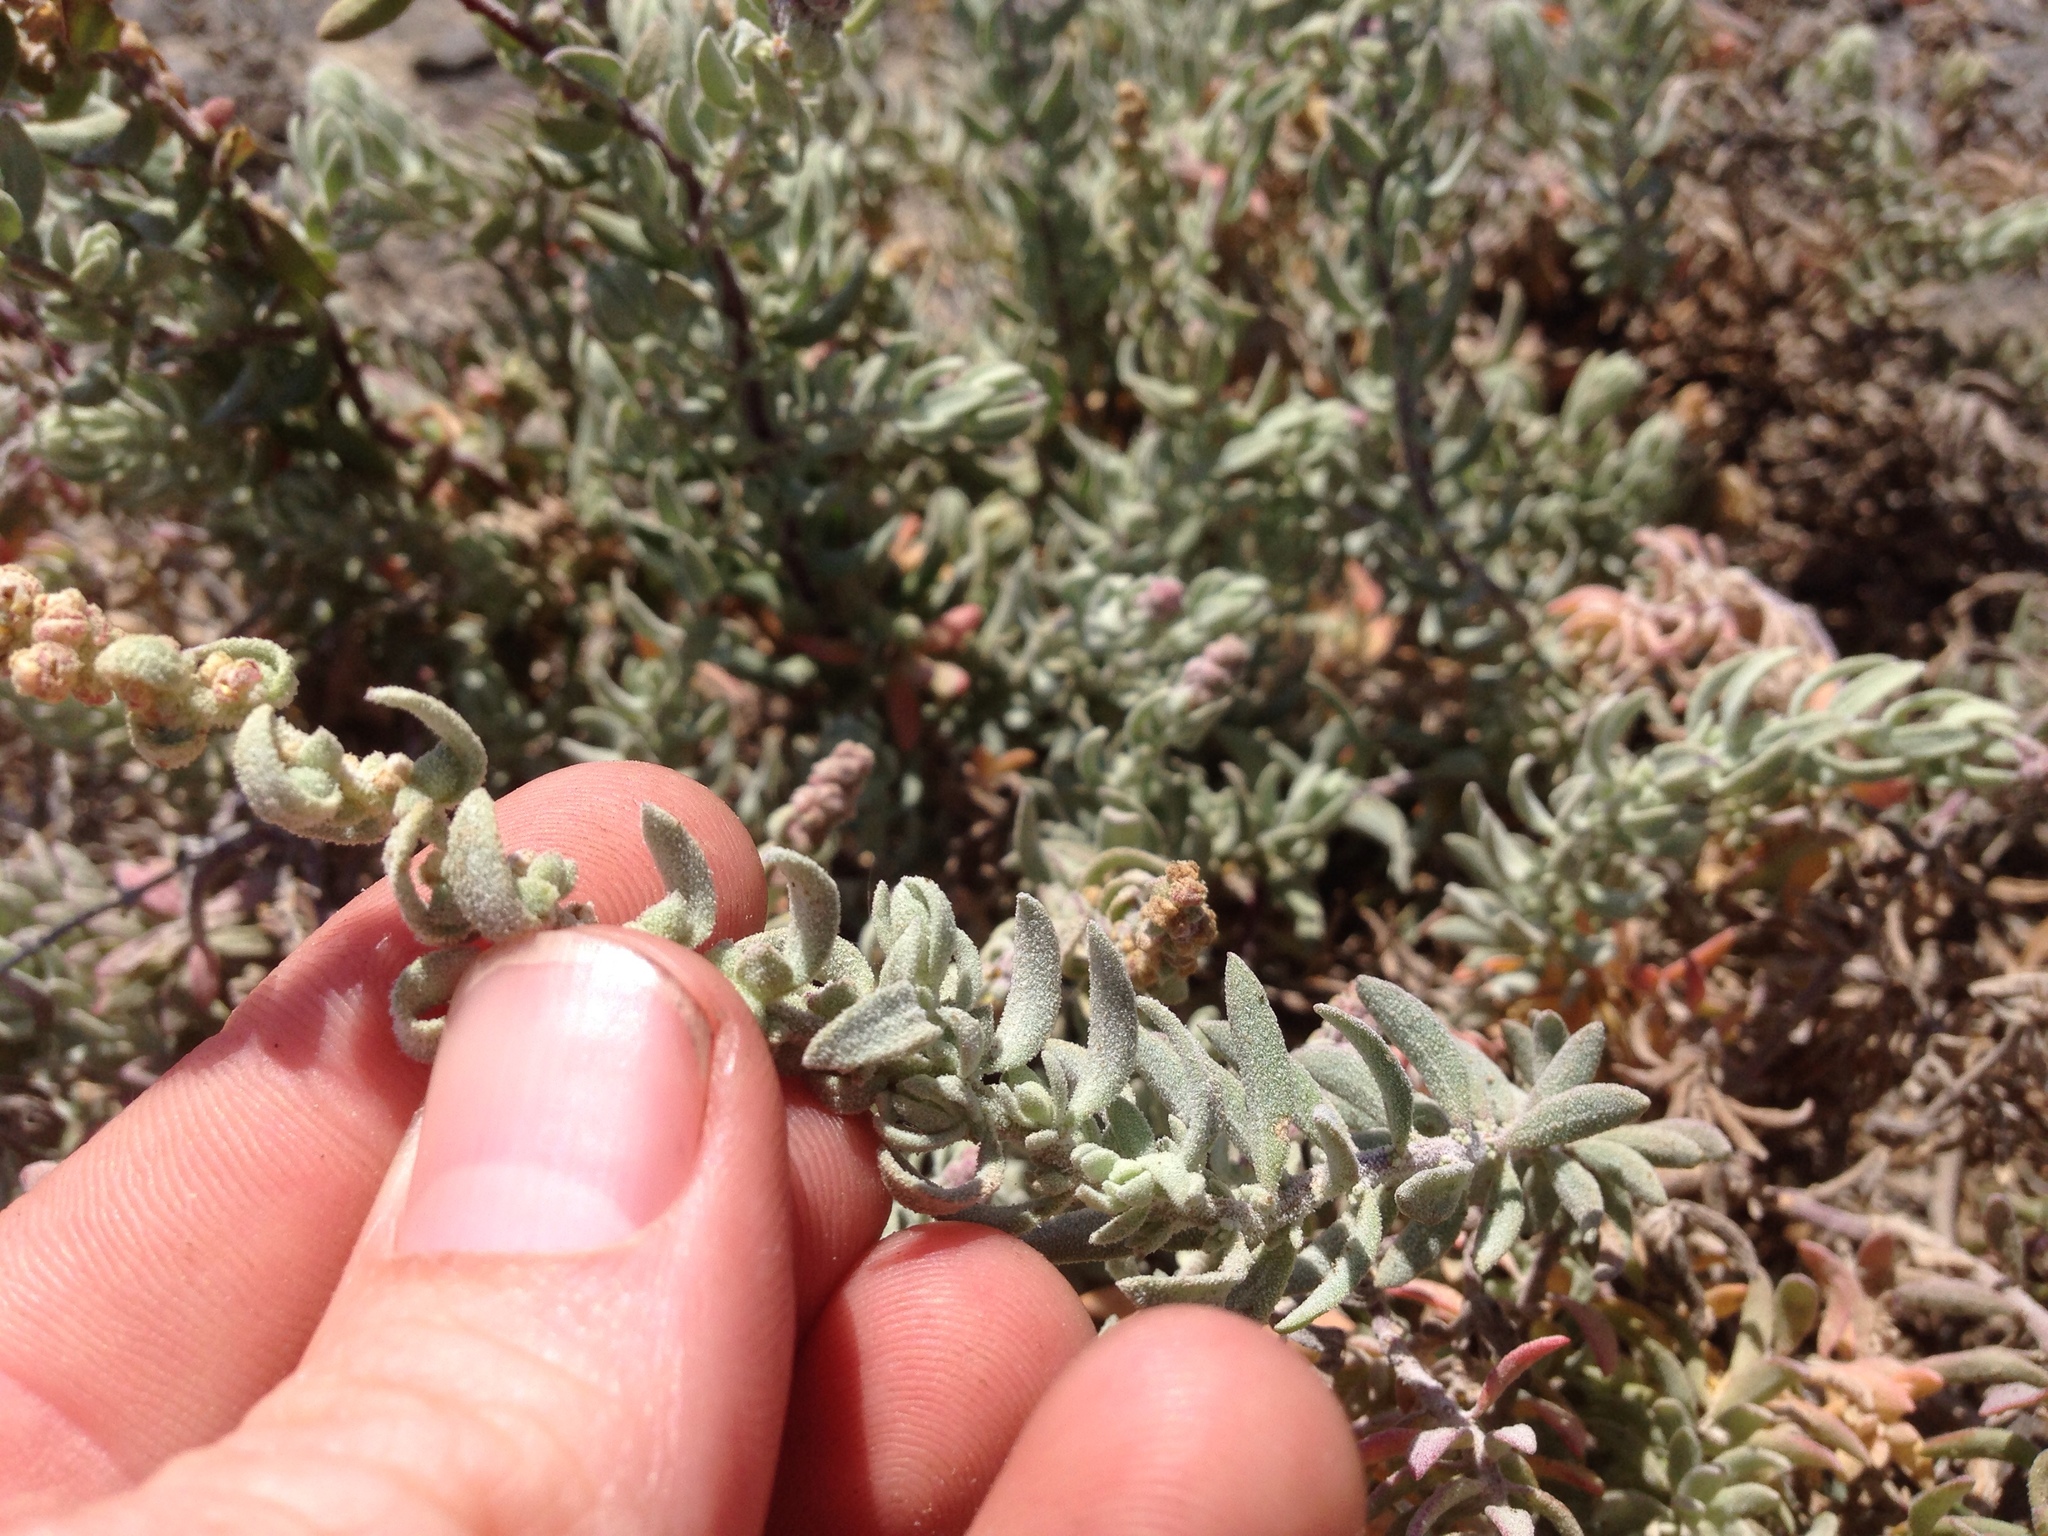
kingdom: Plantae
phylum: Tracheophyta
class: Magnoliopsida
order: Caryophyllales
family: Amaranthaceae
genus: Extriplex
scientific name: Extriplex californica
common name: California saltbush
